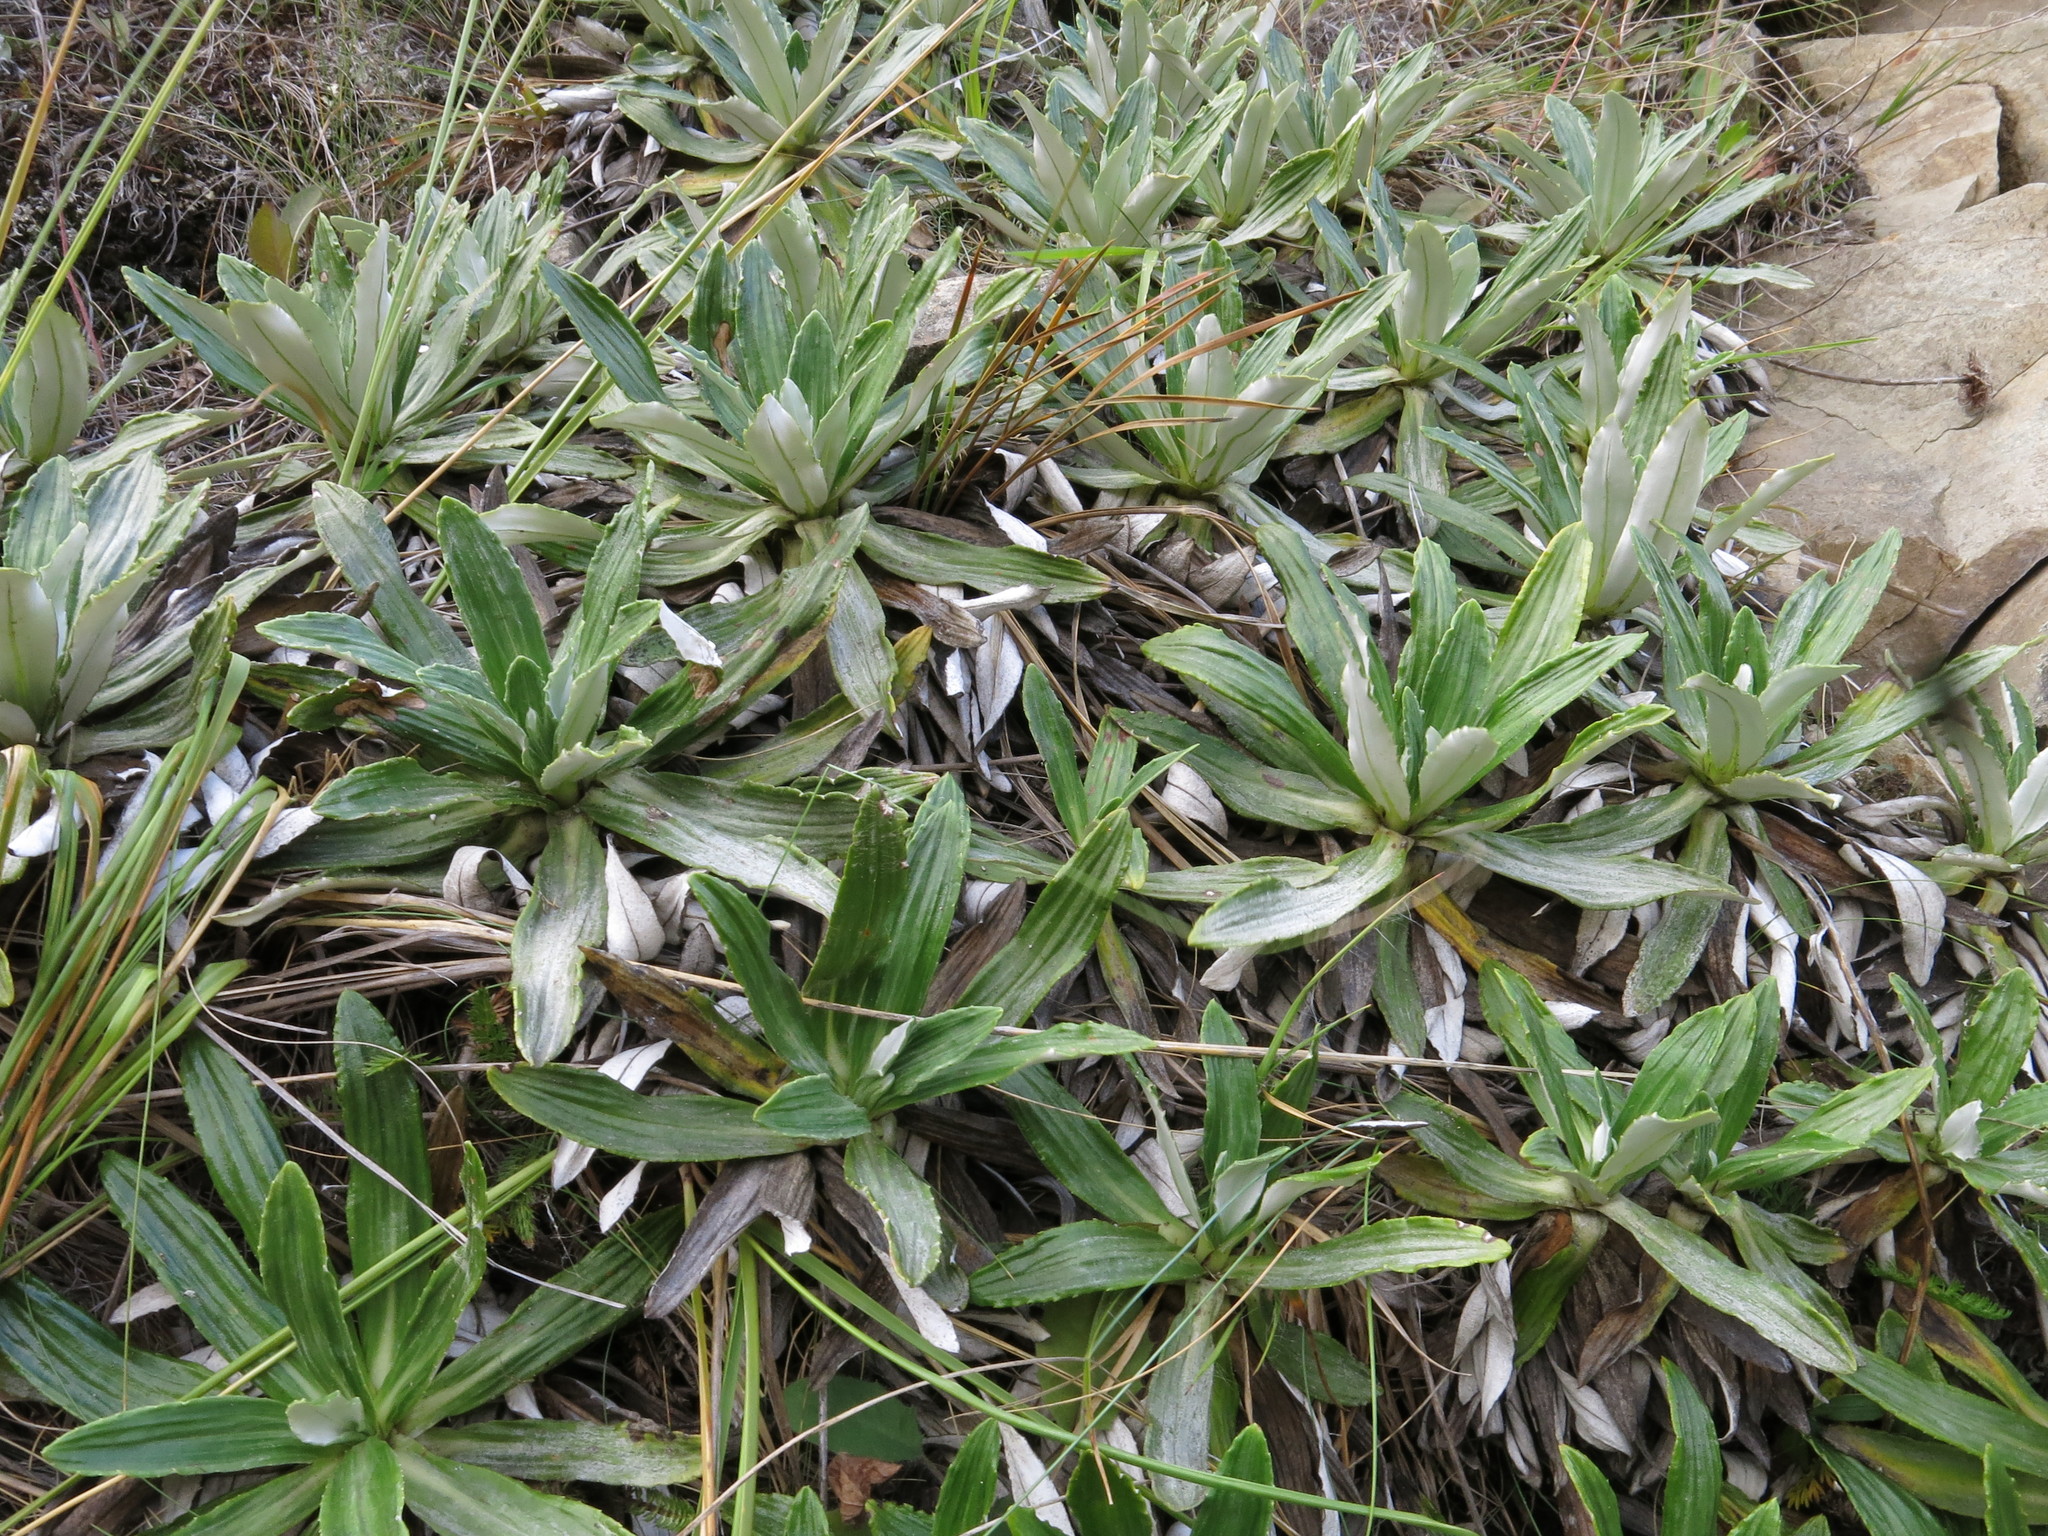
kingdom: Plantae
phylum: Tracheophyta
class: Magnoliopsida
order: Asterales
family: Asteraceae
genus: Celmisia
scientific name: Celmisia densiflora
